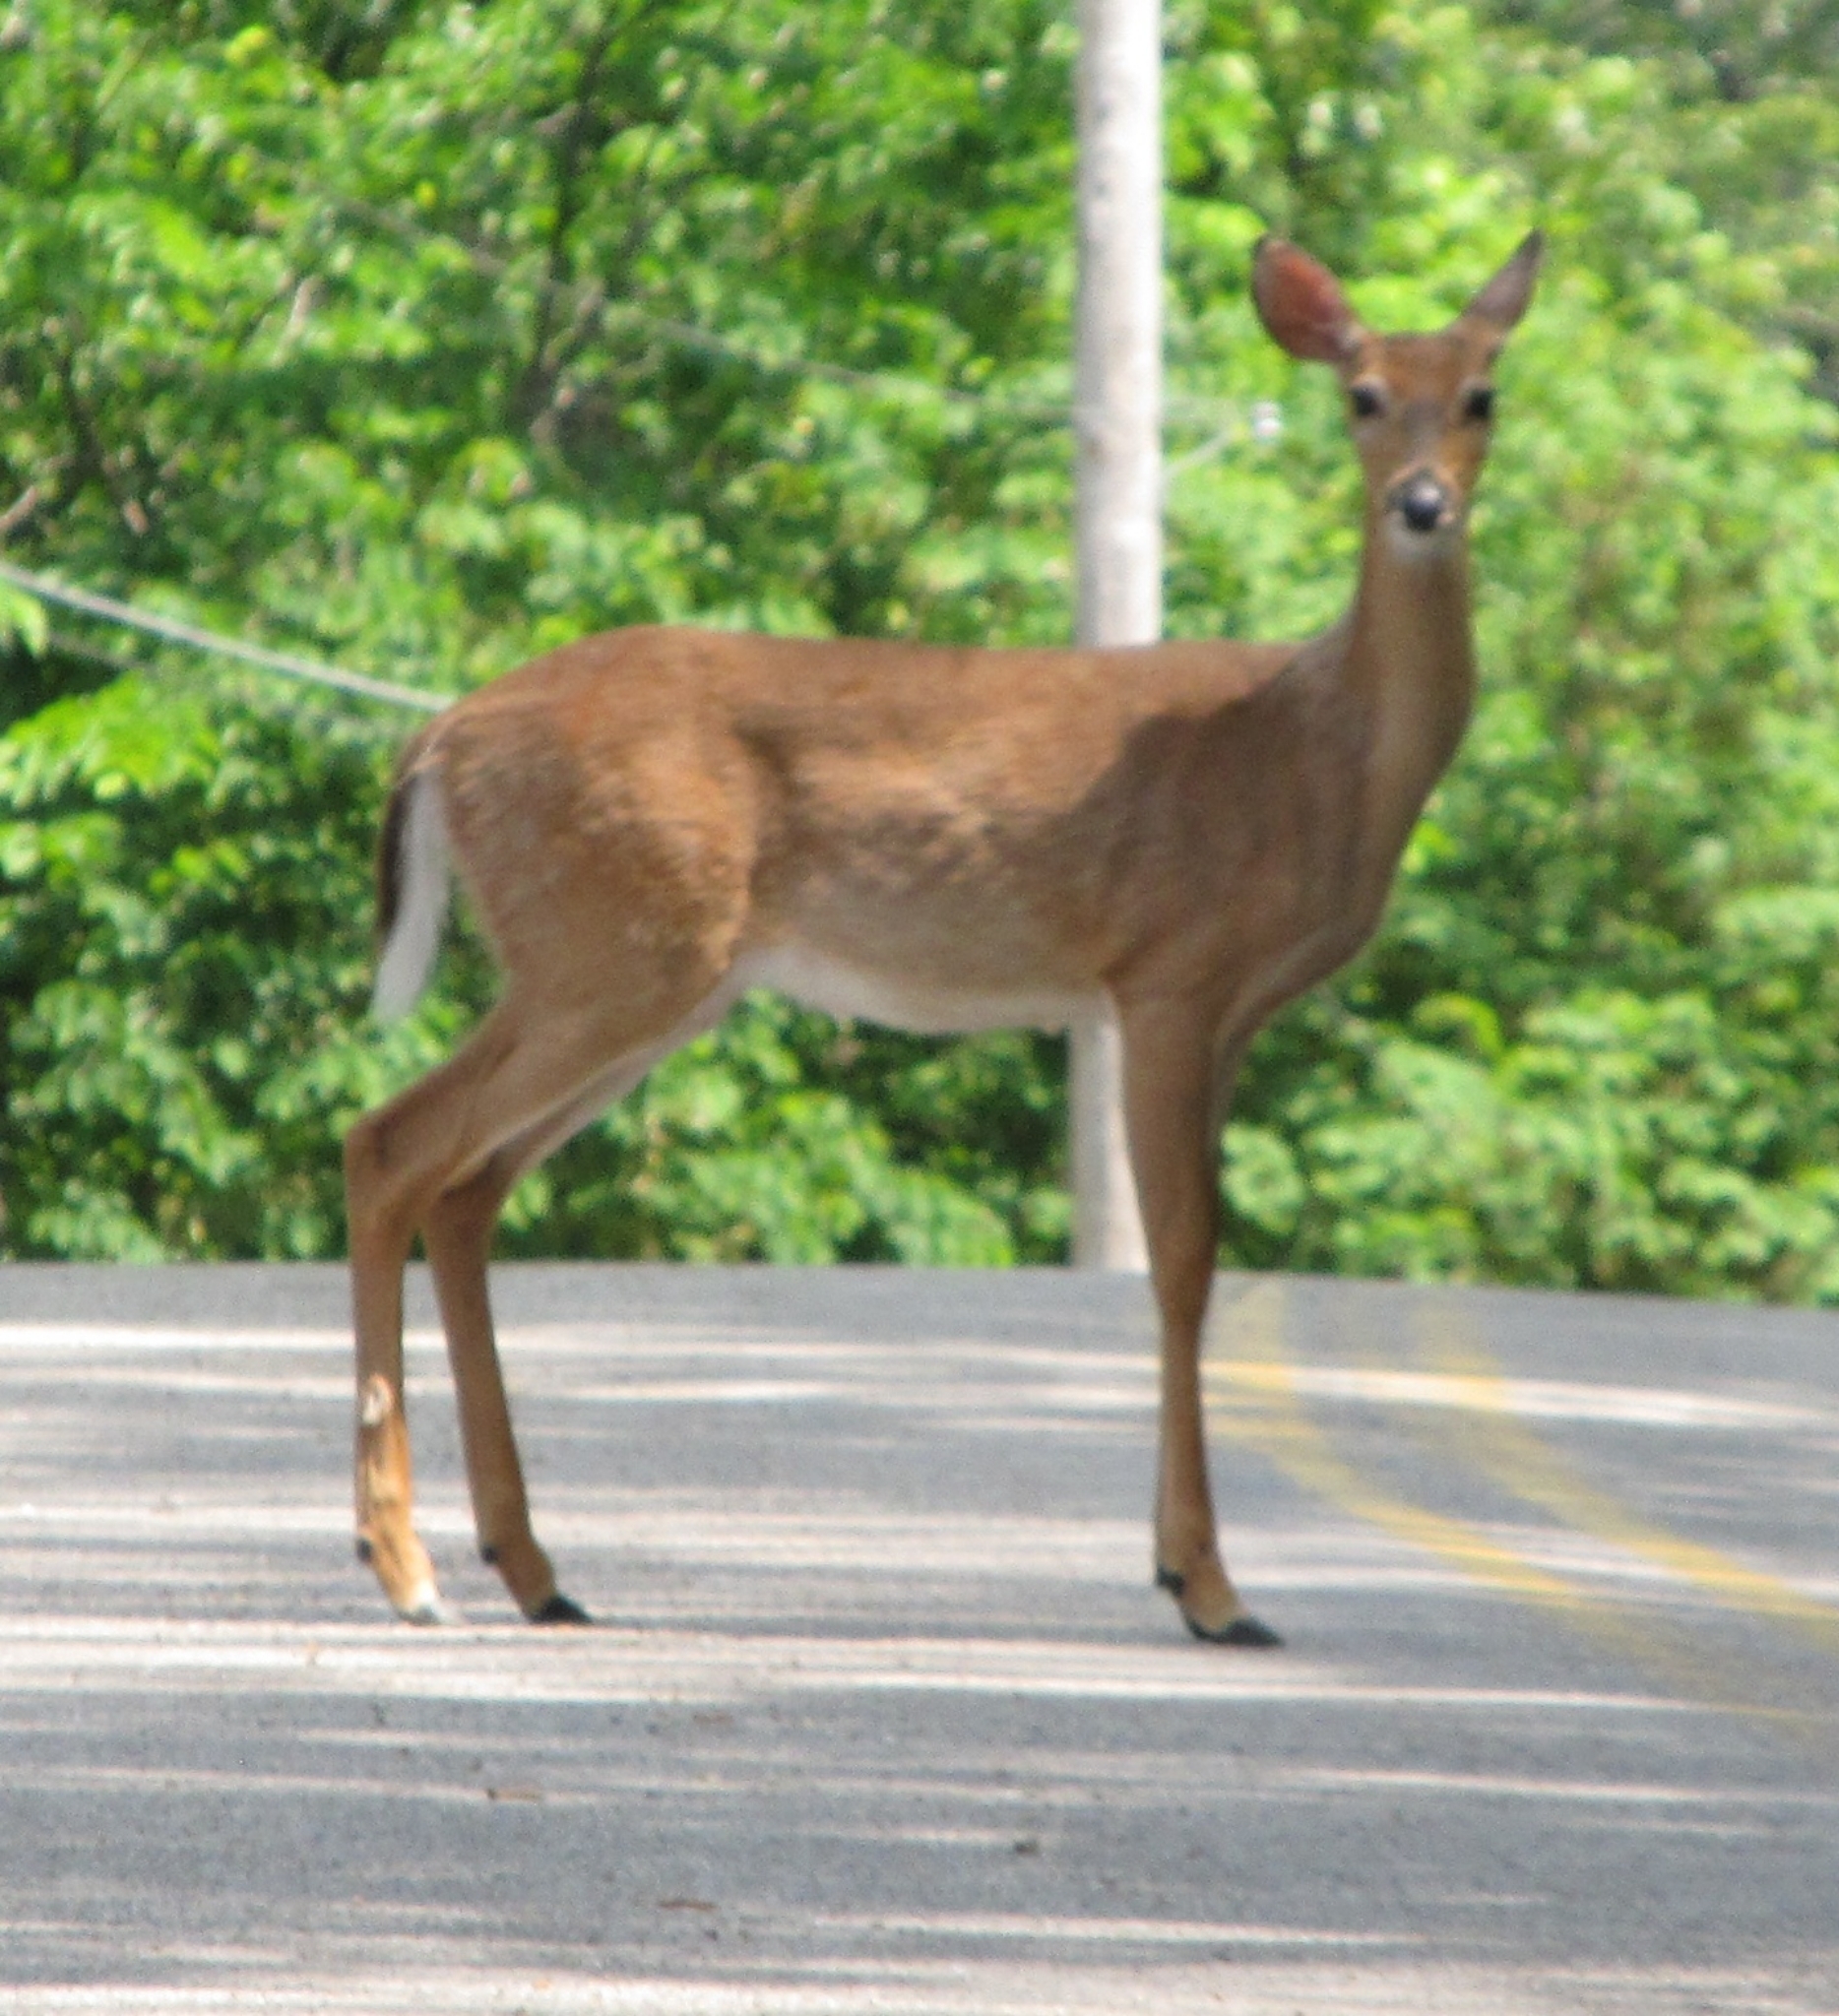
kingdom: Animalia
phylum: Chordata
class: Mammalia
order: Artiodactyla
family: Cervidae
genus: Odocoileus
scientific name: Odocoileus virginianus
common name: White-tailed deer
